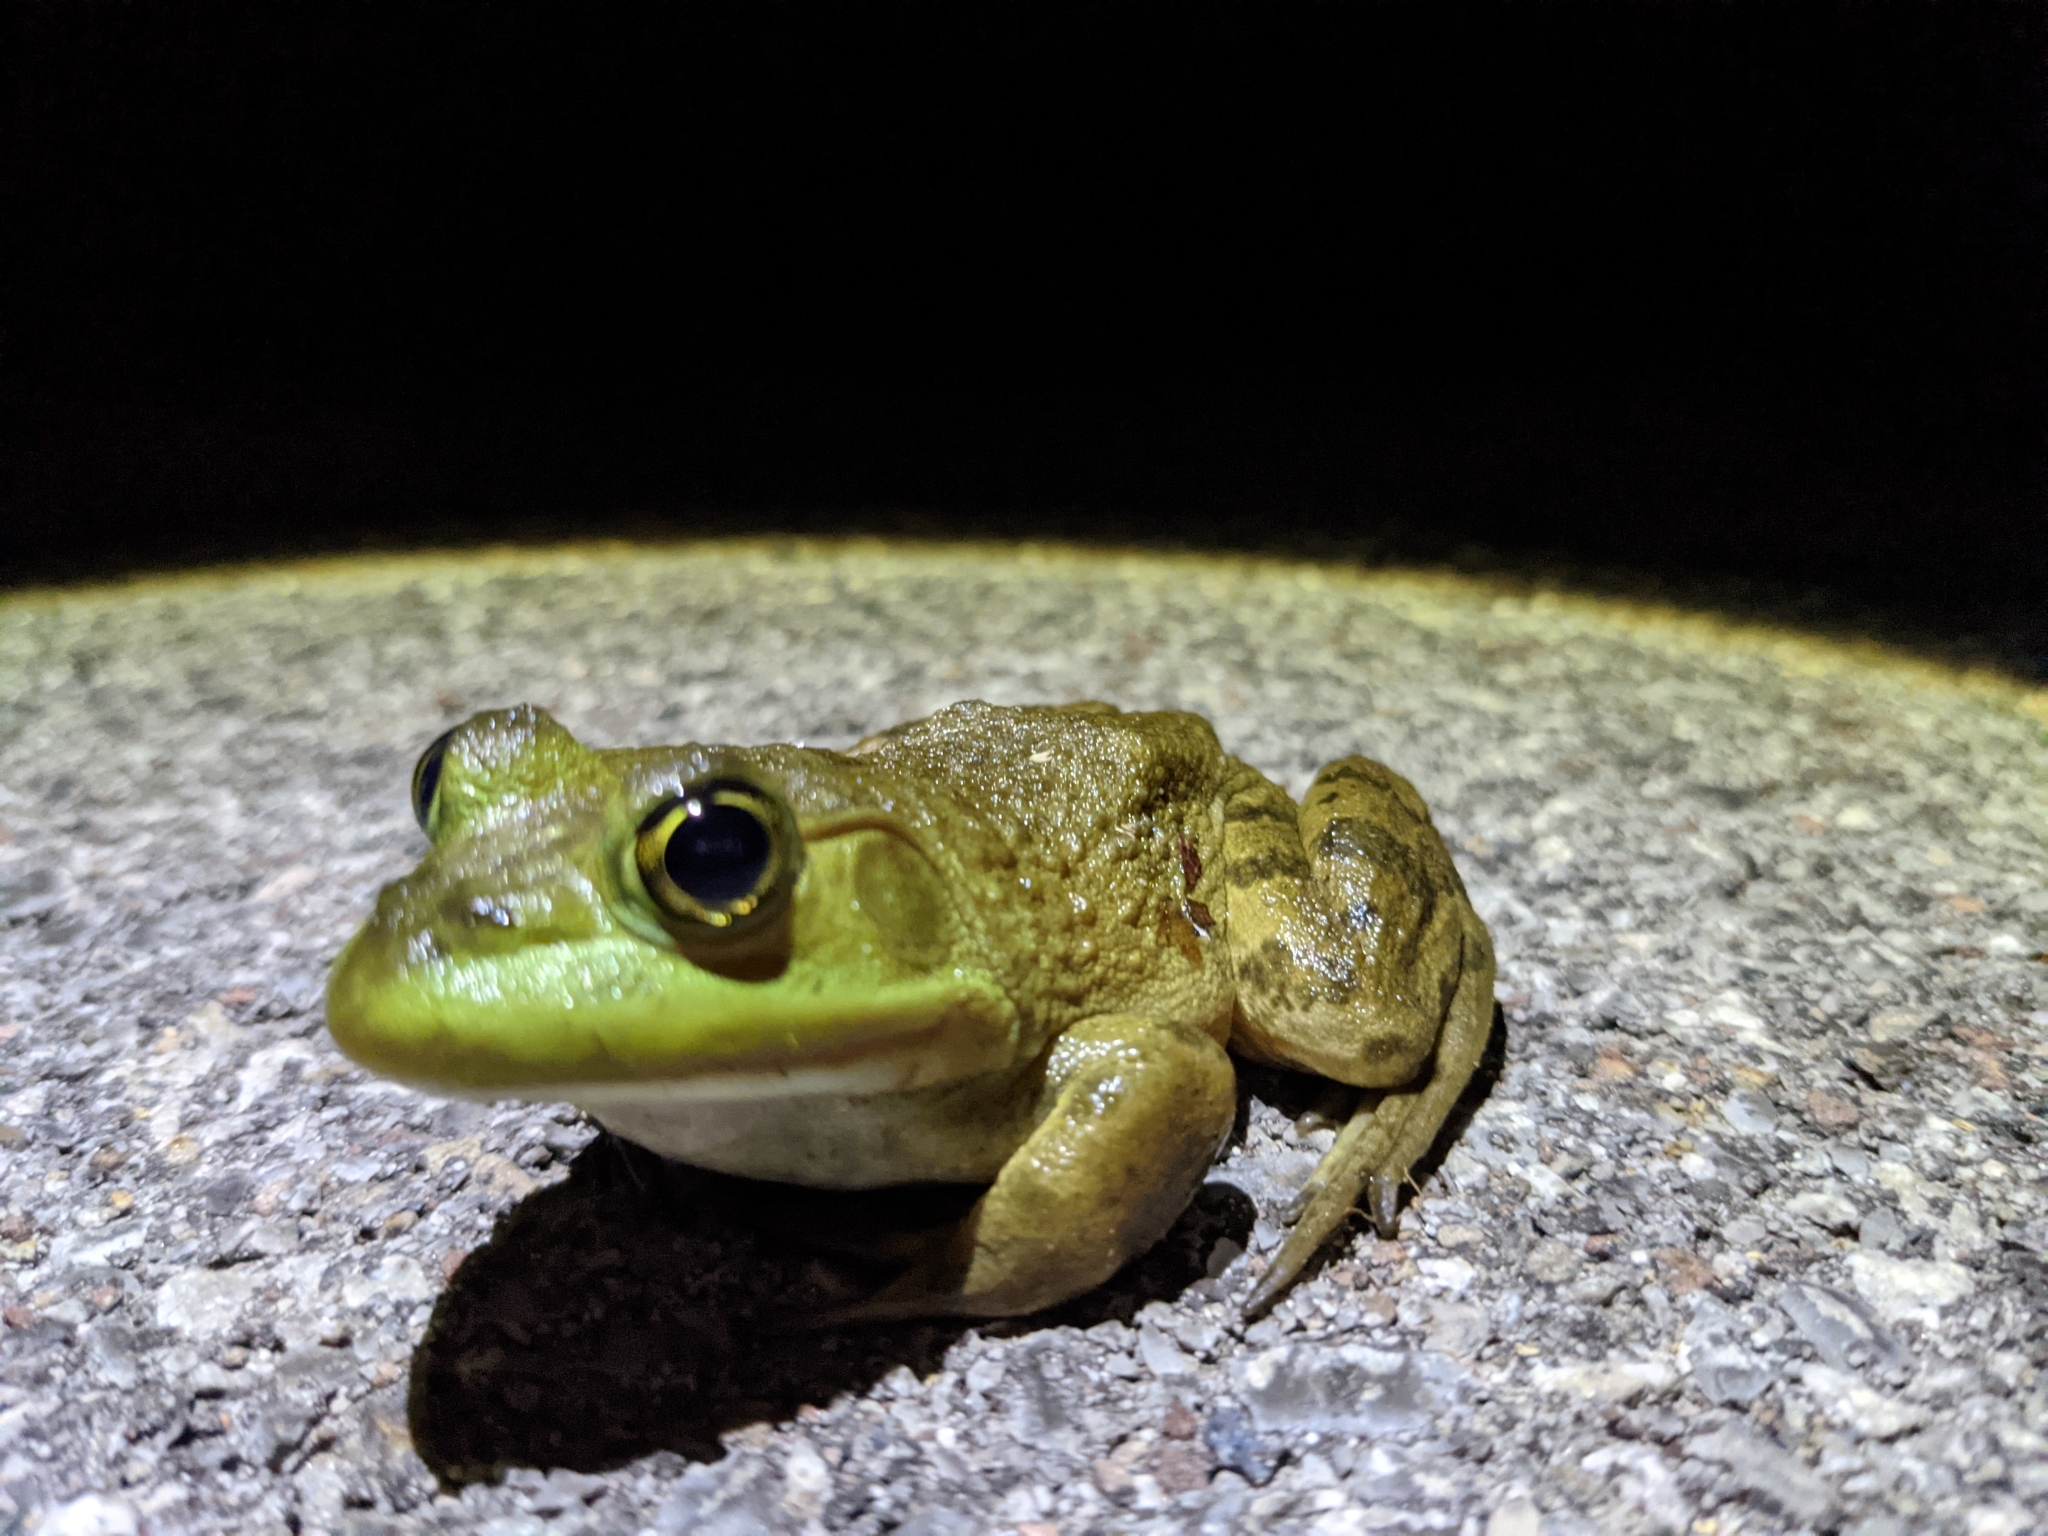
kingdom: Animalia
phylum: Chordata
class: Amphibia
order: Anura
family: Ranidae
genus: Lithobates
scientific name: Lithobates catesbeianus
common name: American bullfrog
